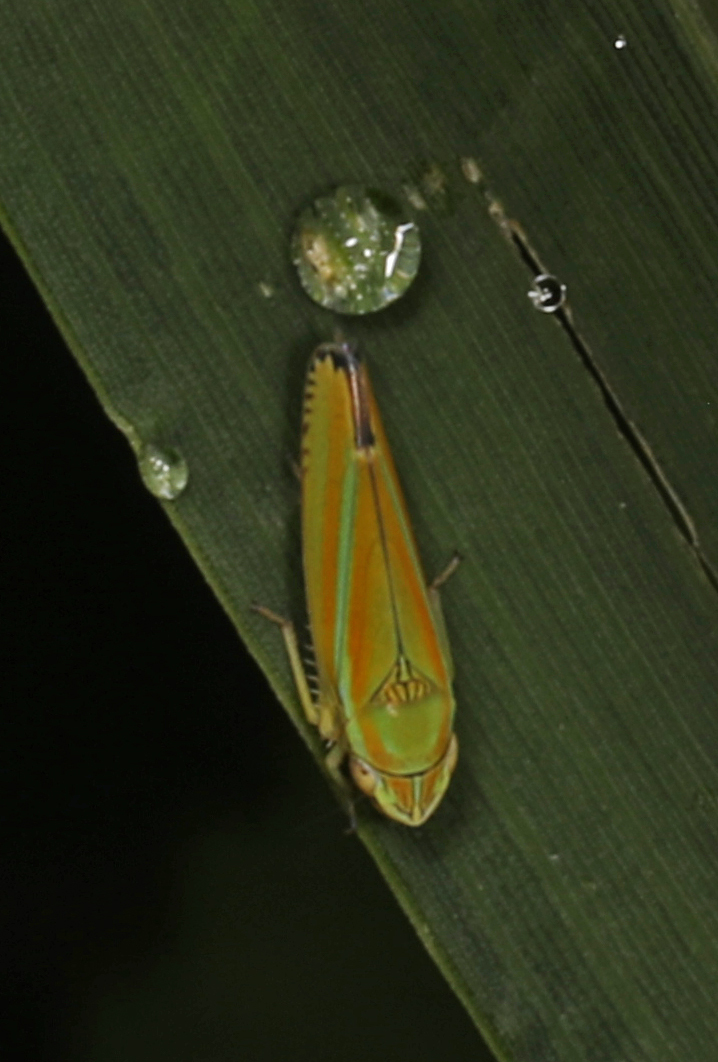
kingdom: Animalia
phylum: Arthropoda
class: Insecta
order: Hemiptera
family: Cicadellidae
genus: Graphocephala
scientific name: Graphocephala versuta
